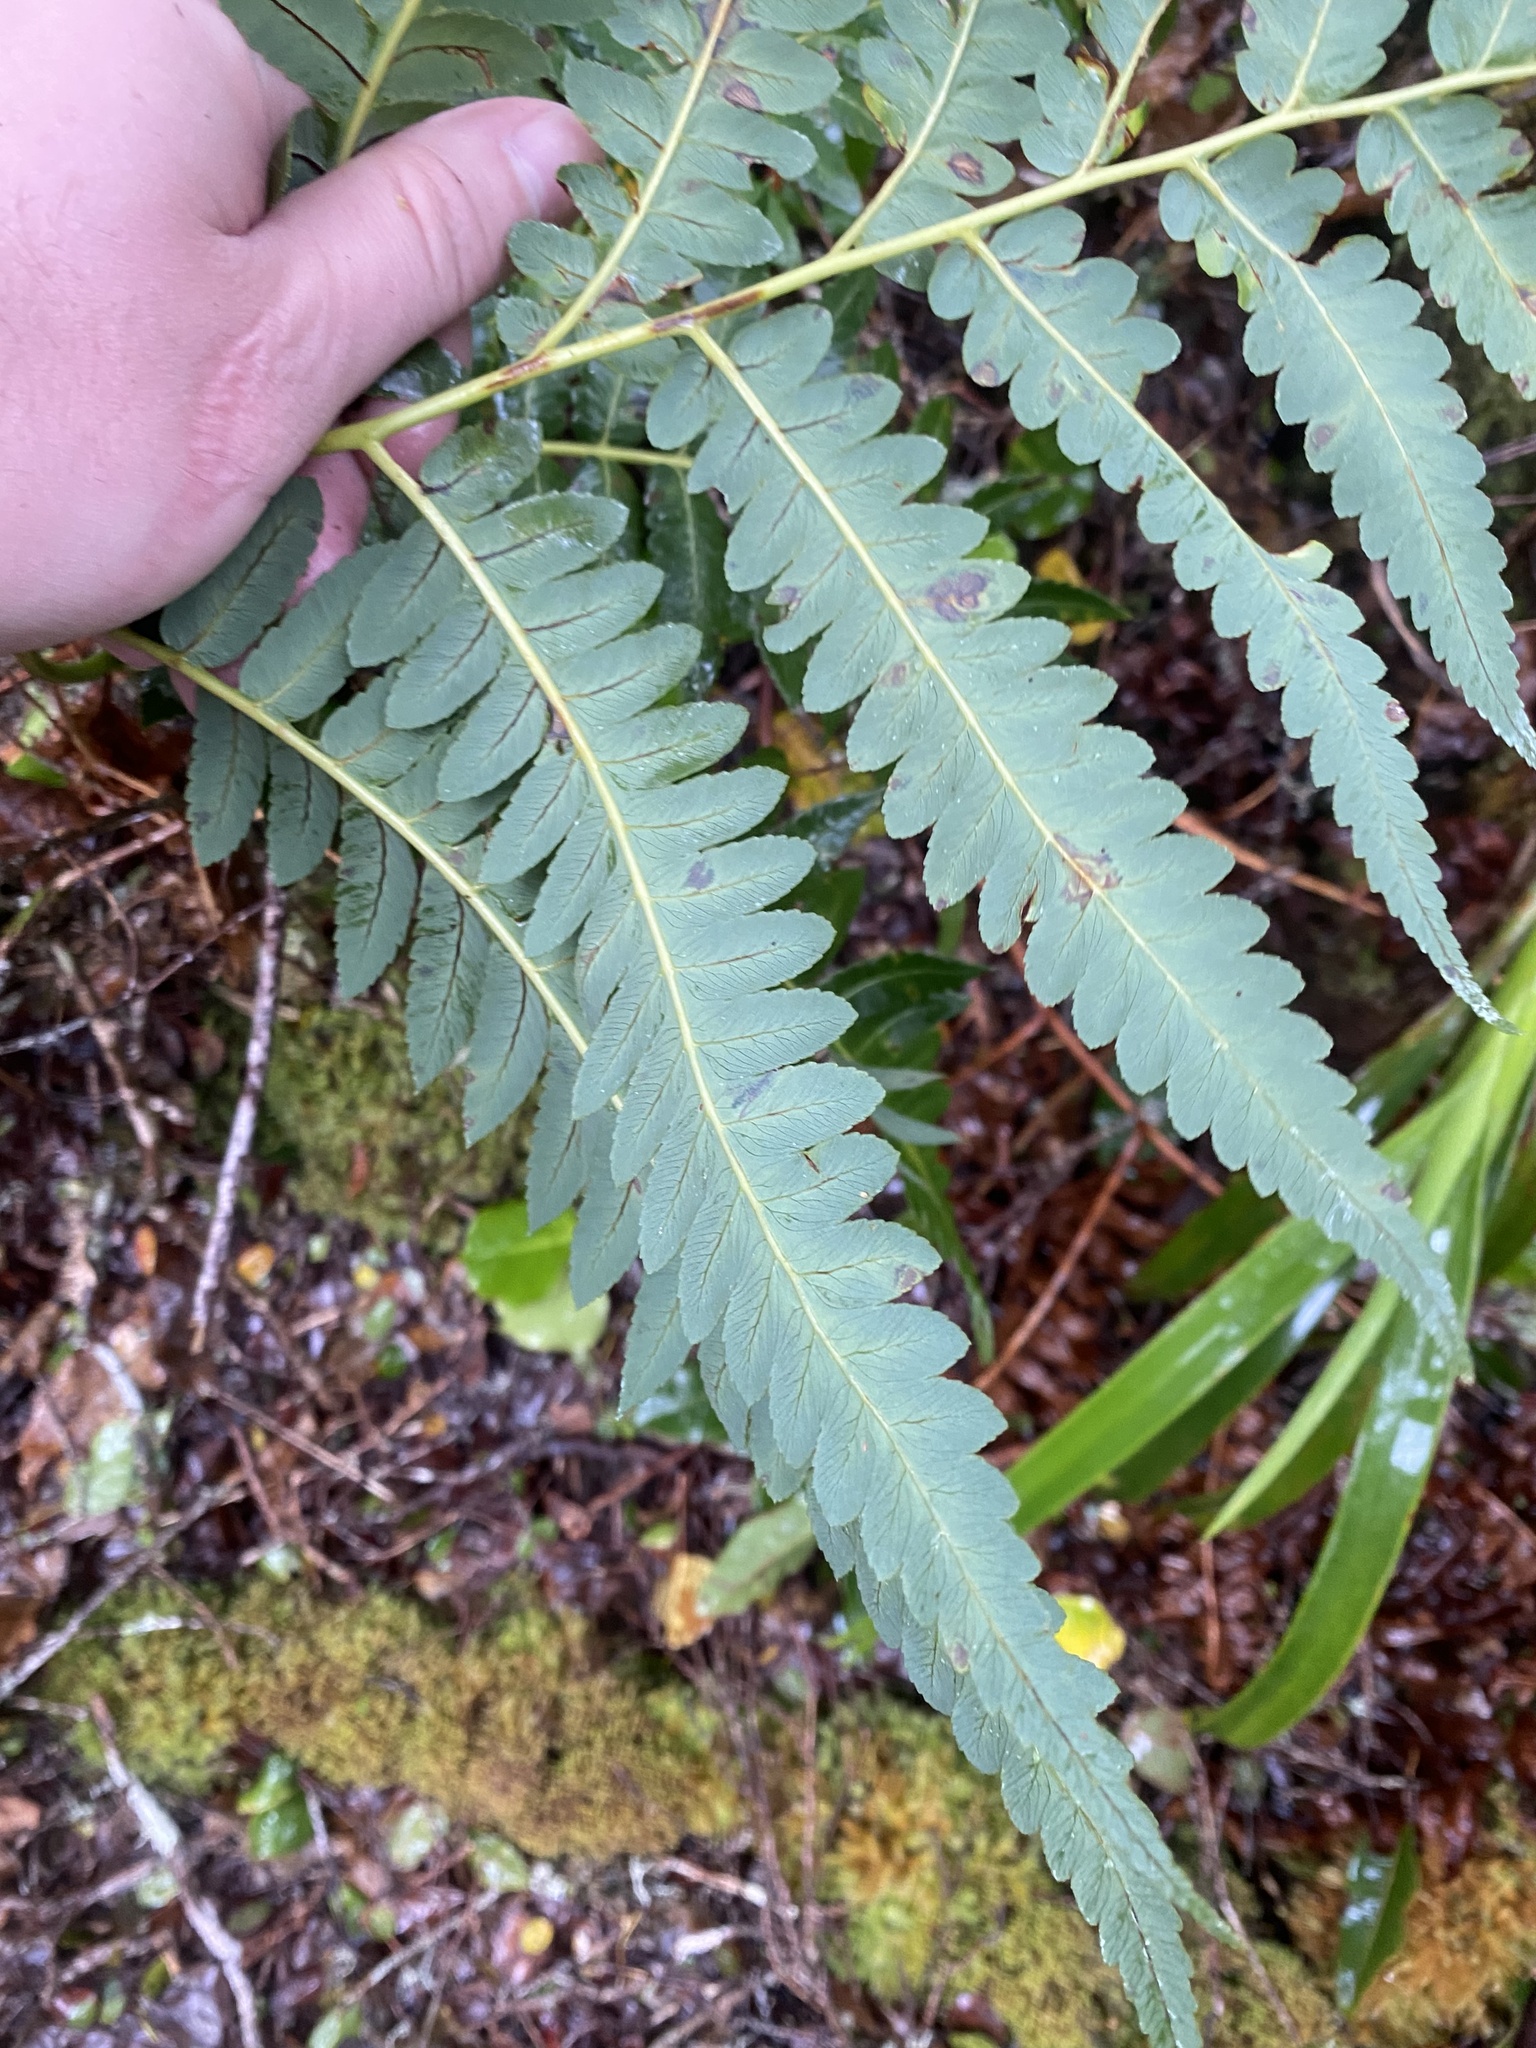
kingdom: Plantae
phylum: Tracheophyta
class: Polypodiopsida
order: Cyatheales
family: Cibotiaceae
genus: Cibotium
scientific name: Cibotium glaucum
